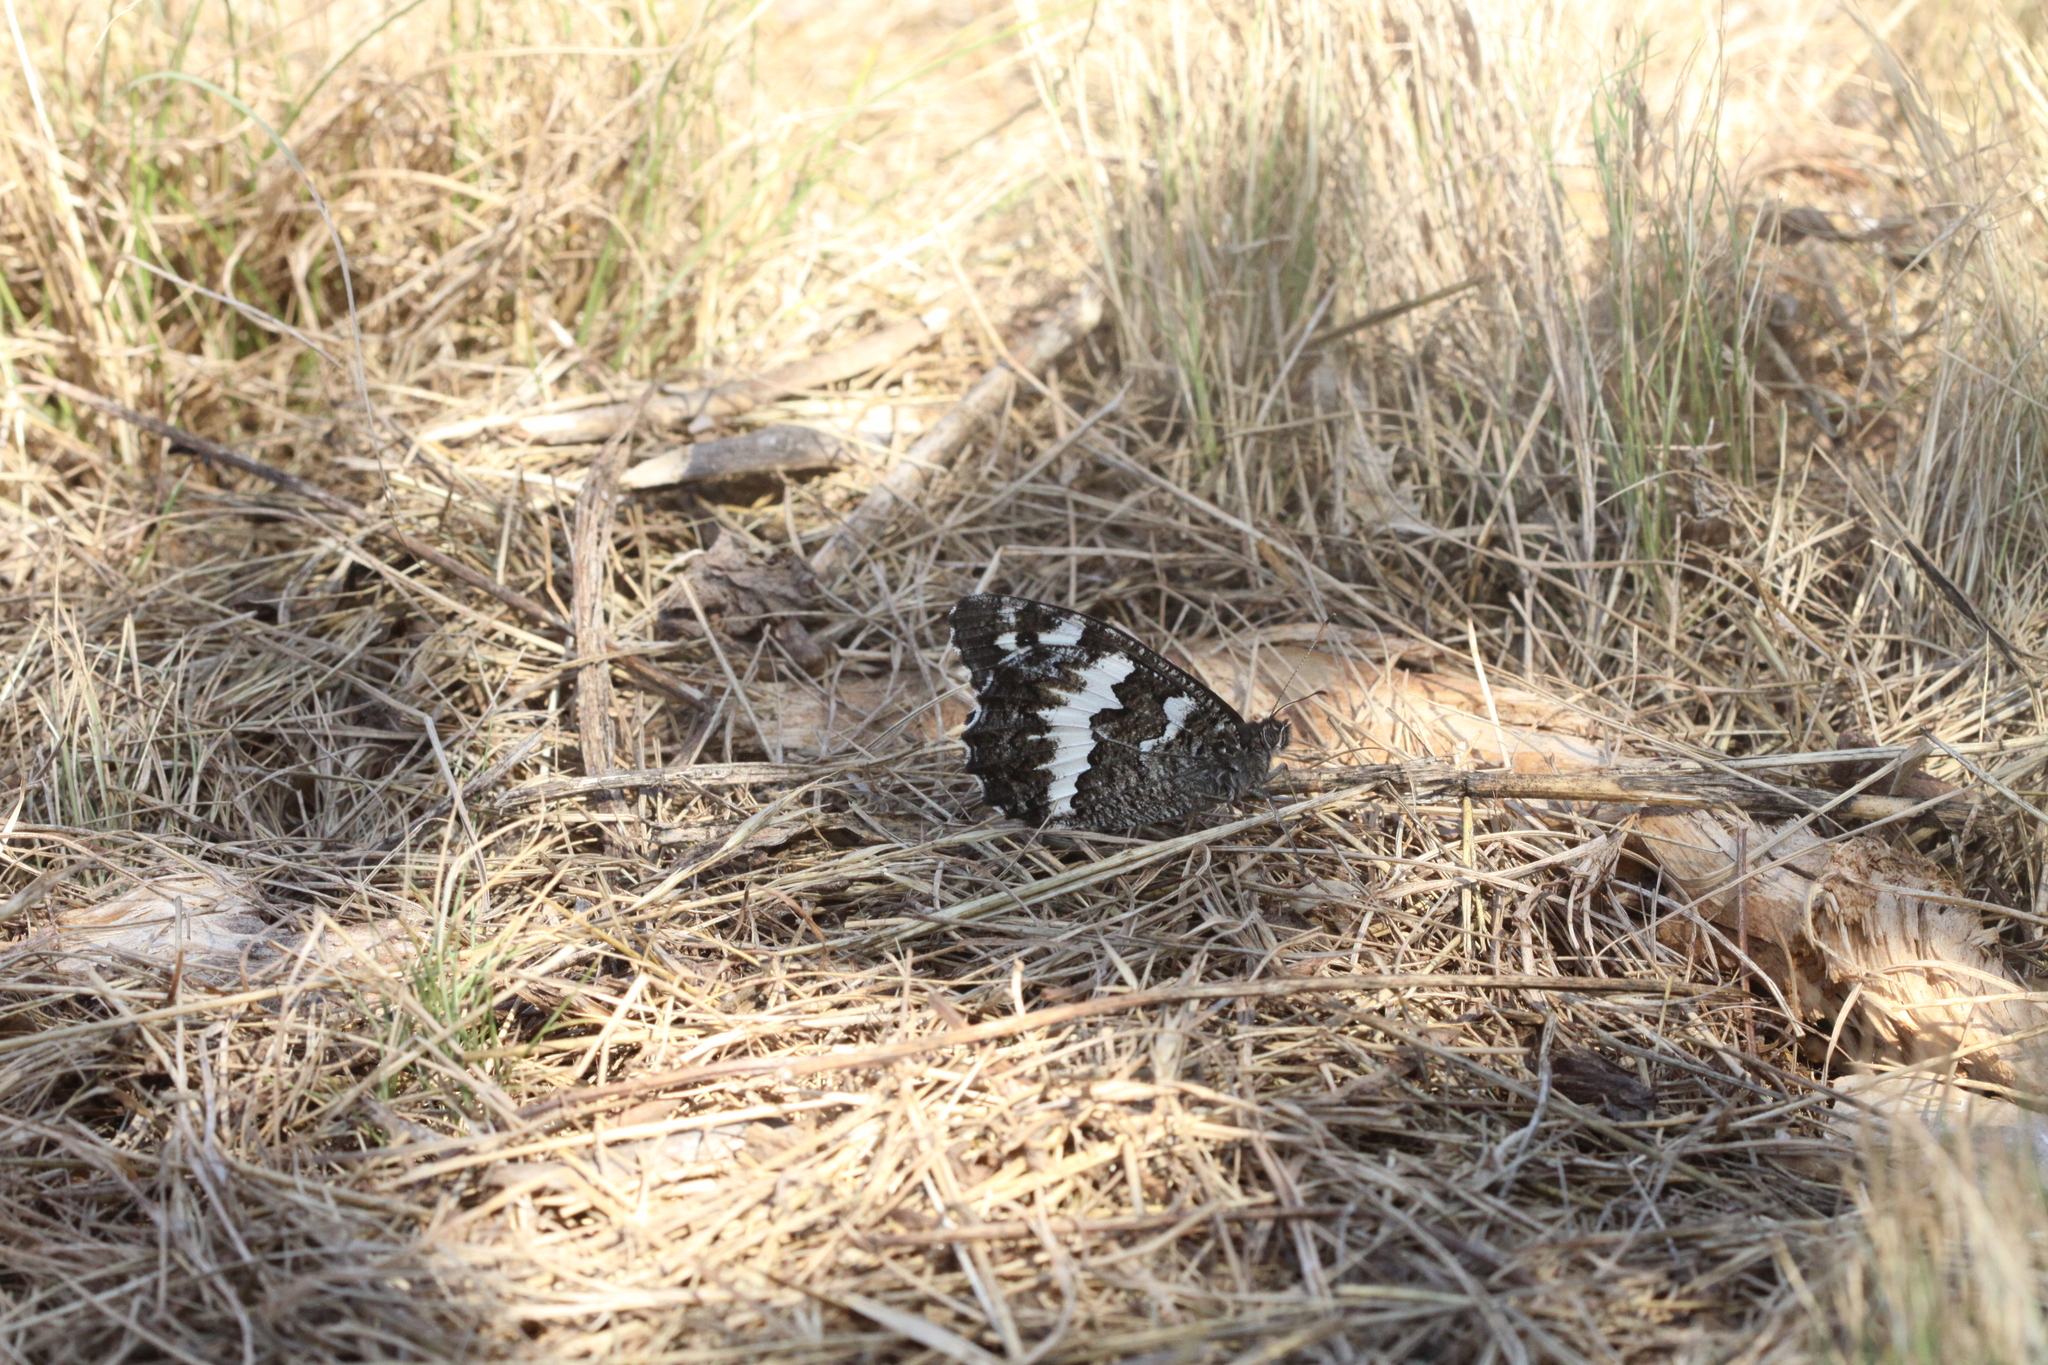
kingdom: Animalia
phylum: Arthropoda
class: Insecta
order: Lepidoptera
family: Lycaenidae
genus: Loweia
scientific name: Loweia tityrus
